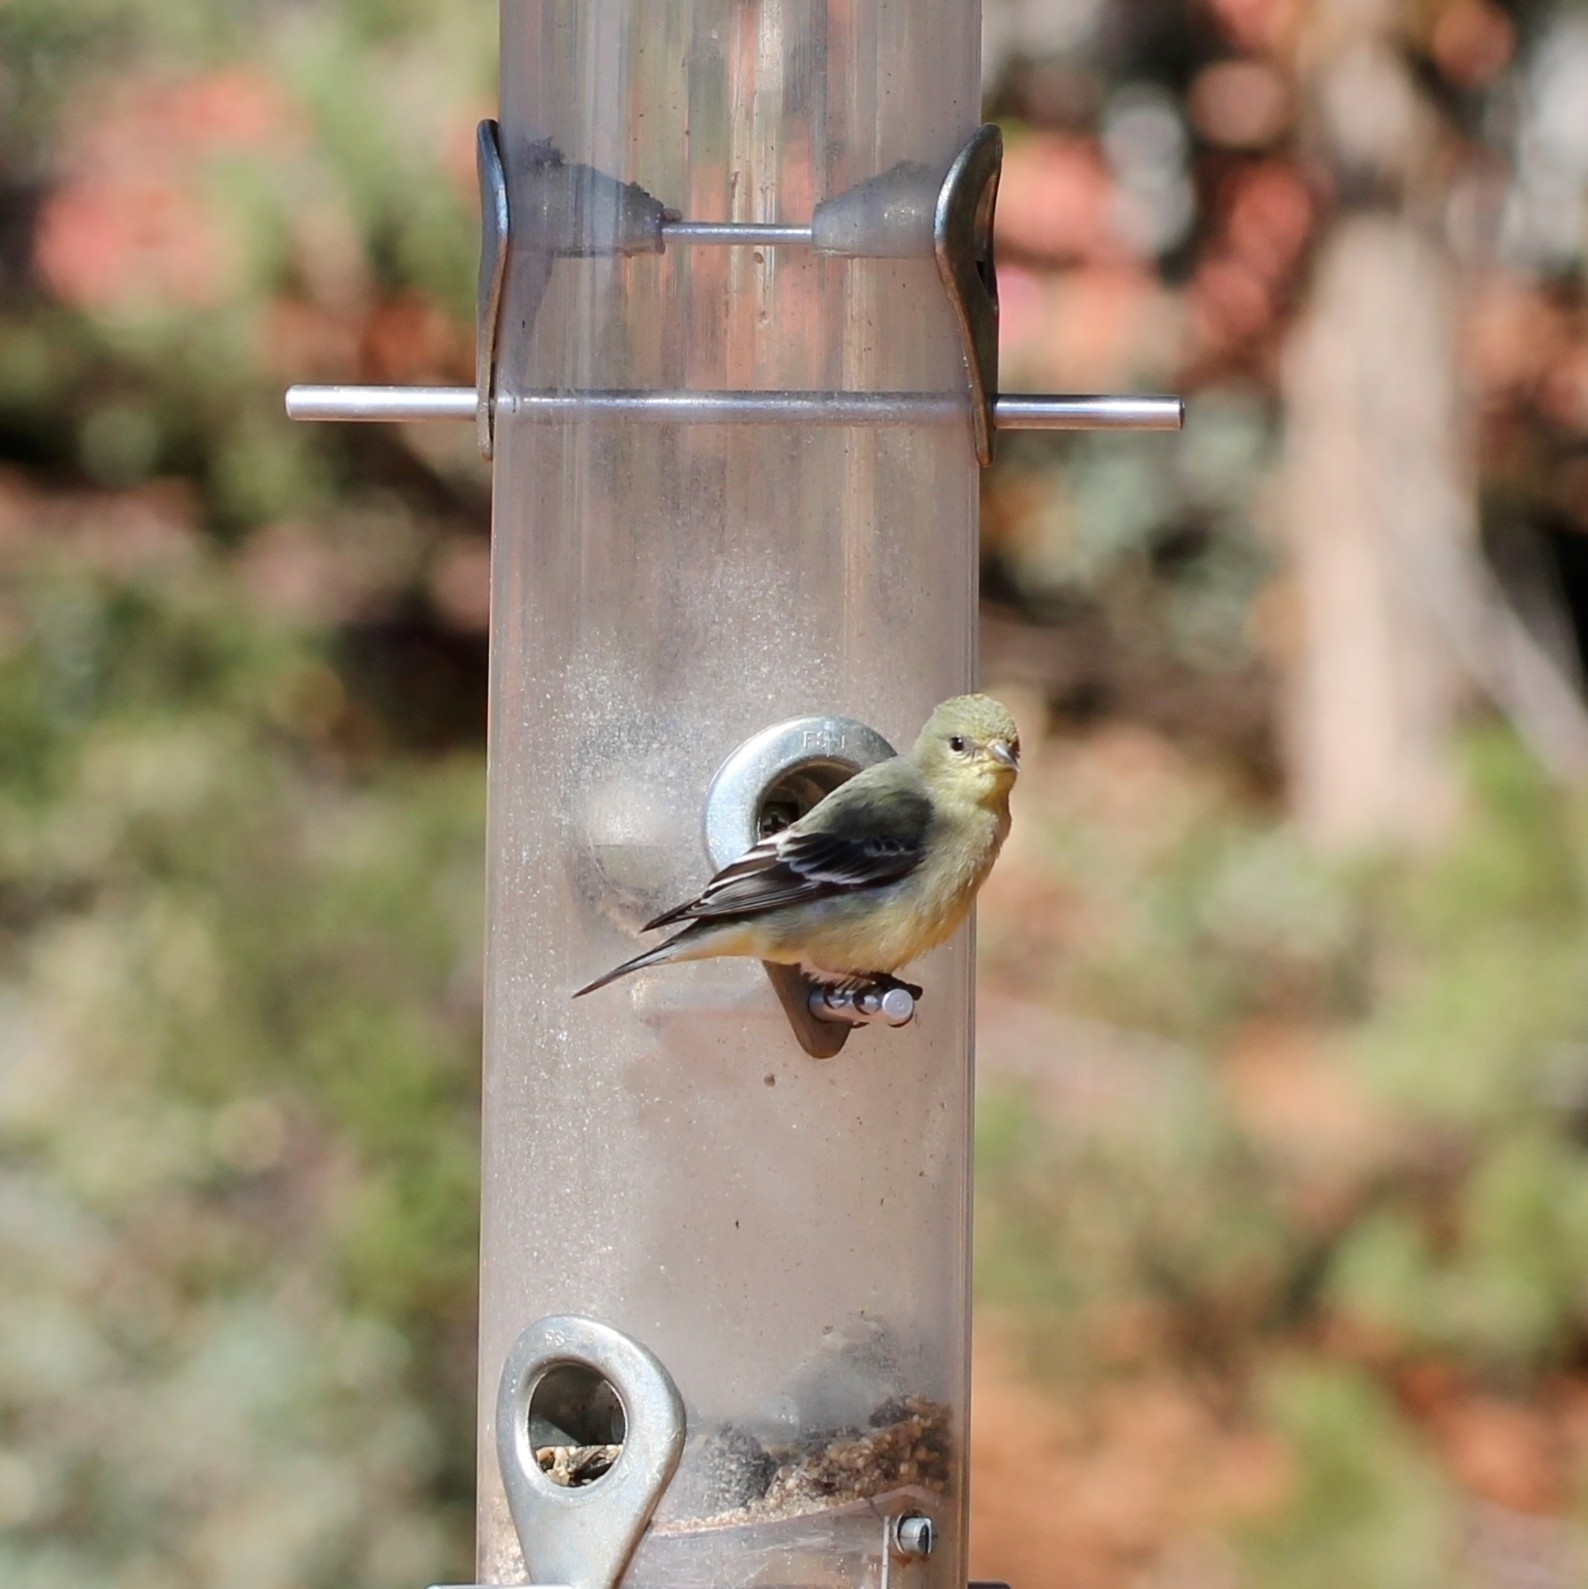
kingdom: Animalia
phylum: Chordata
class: Aves
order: Passeriformes
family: Fringillidae
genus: Spinus
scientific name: Spinus psaltria
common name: Lesser goldfinch
